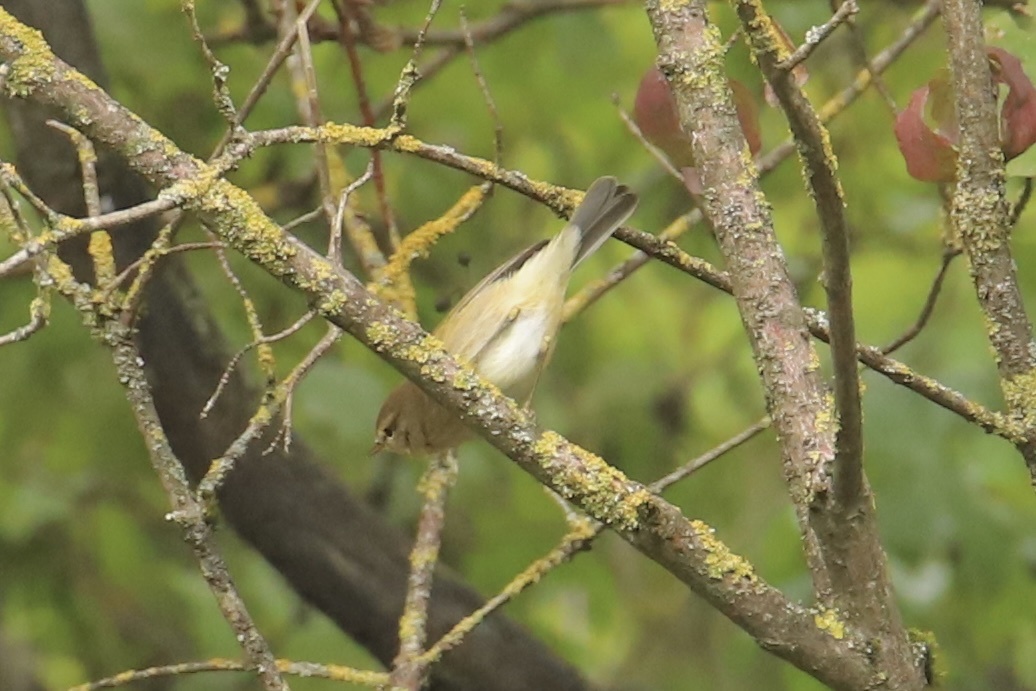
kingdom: Animalia
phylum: Chordata
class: Aves
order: Passeriformes
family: Phylloscopidae
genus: Phylloscopus
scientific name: Phylloscopus collybita
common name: Common chiffchaff
